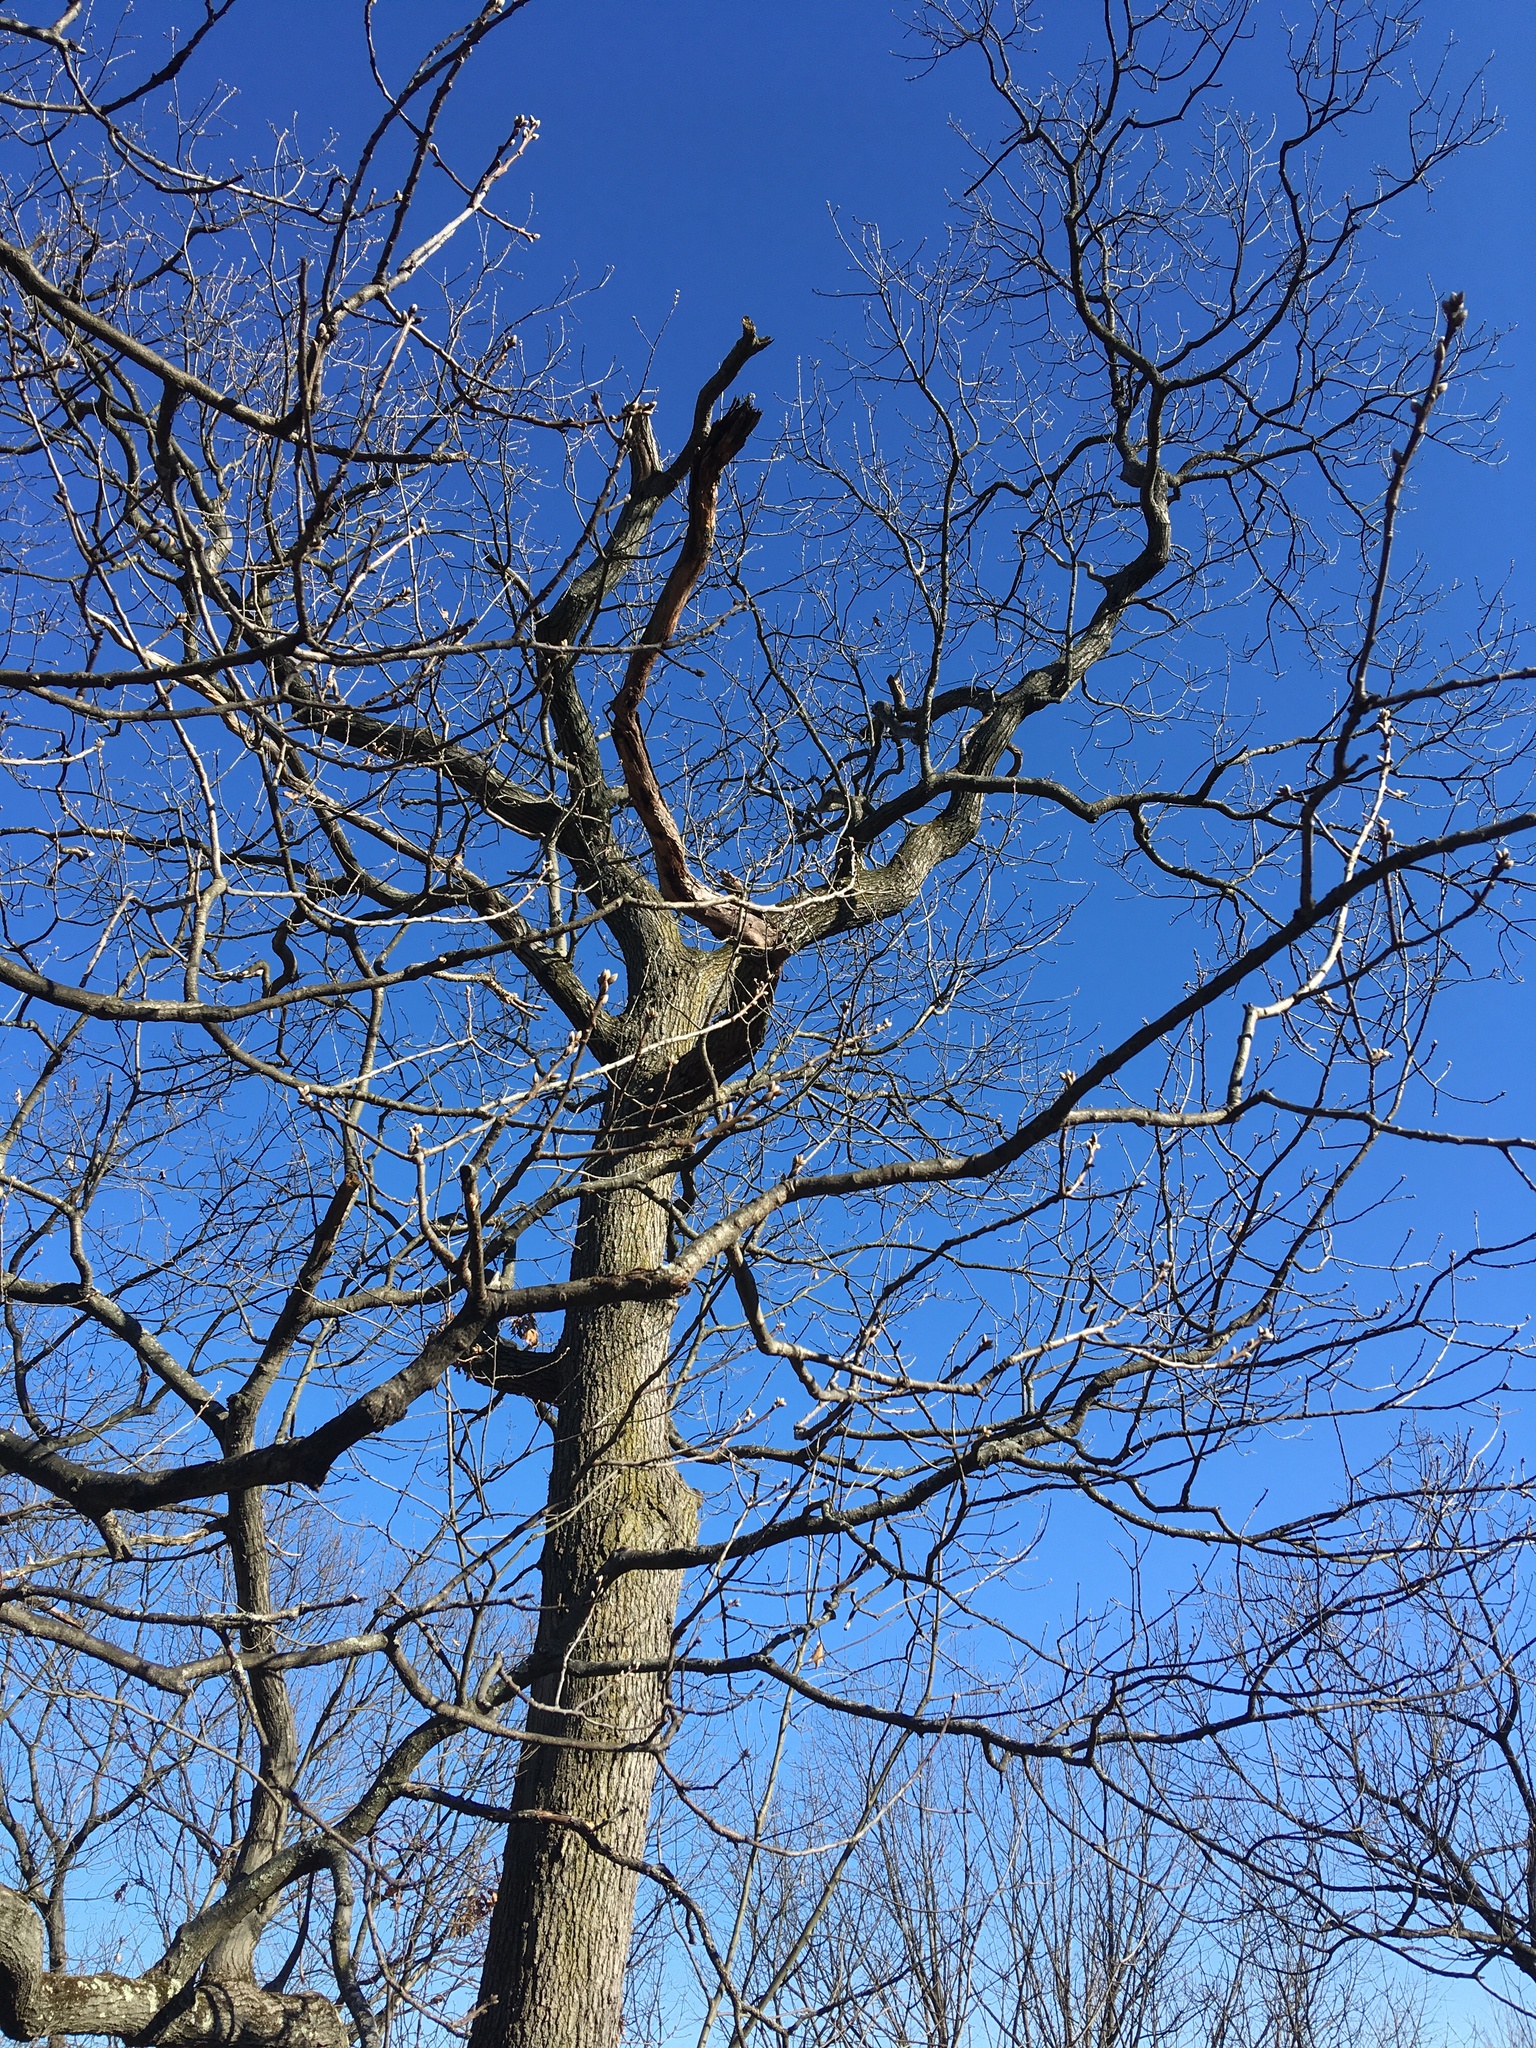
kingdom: Plantae
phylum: Tracheophyta
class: Magnoliopsida
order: Fagales
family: Fagaceae
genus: Quercus
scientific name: Quercus velutina
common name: Black oak
